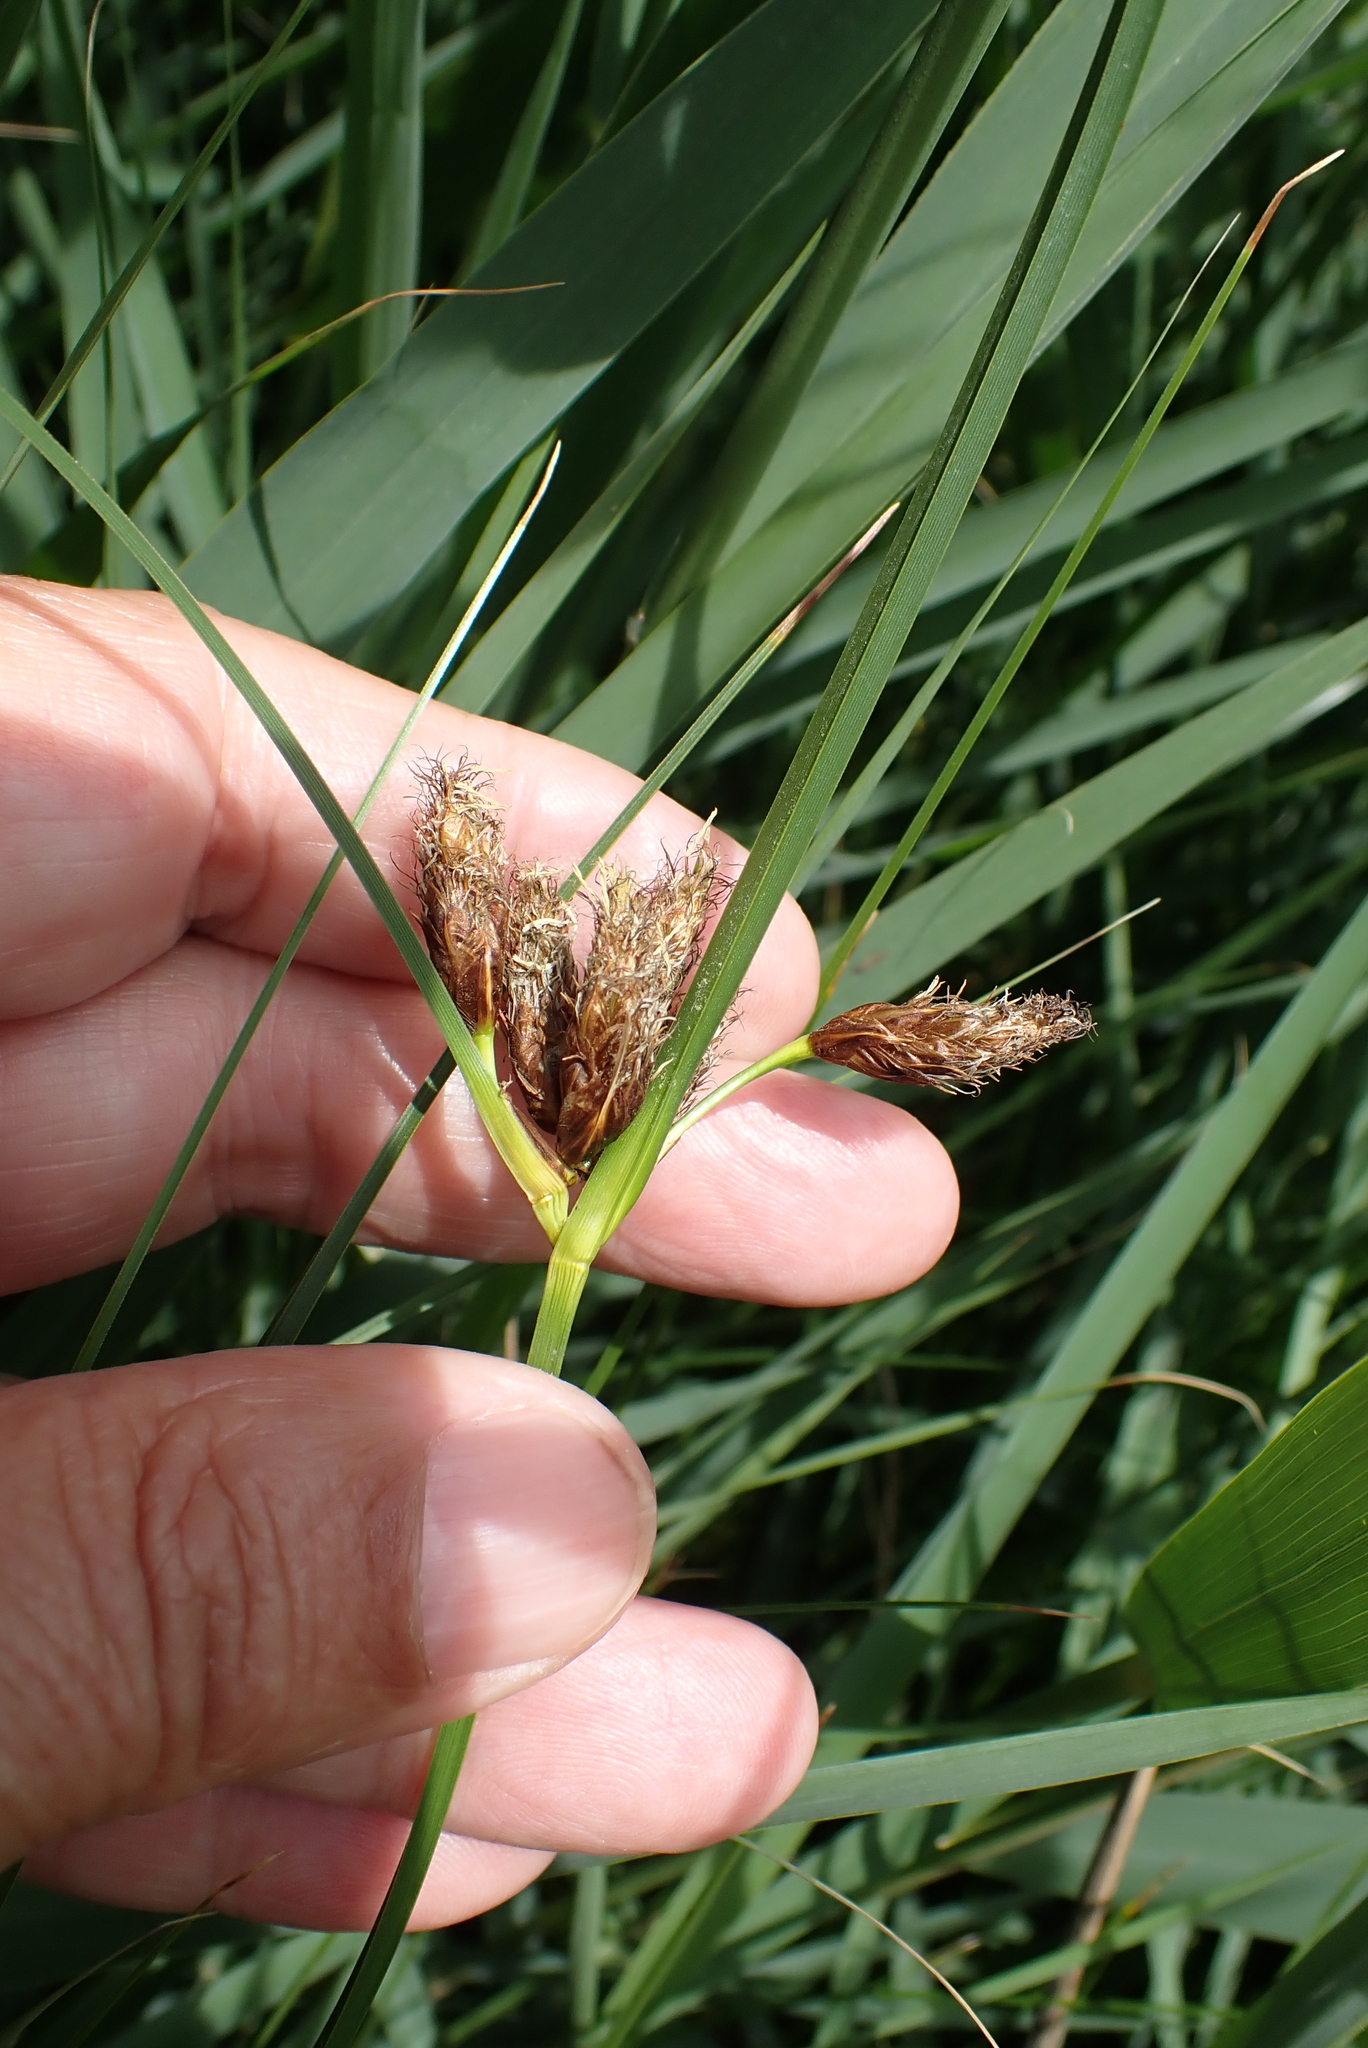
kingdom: Plantae
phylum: Tracheophyta
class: Liliopsida
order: Poales
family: Cyperaceae
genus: Bolboschoenus
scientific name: Bolboschoenus maritimus
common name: Sea club-rush
